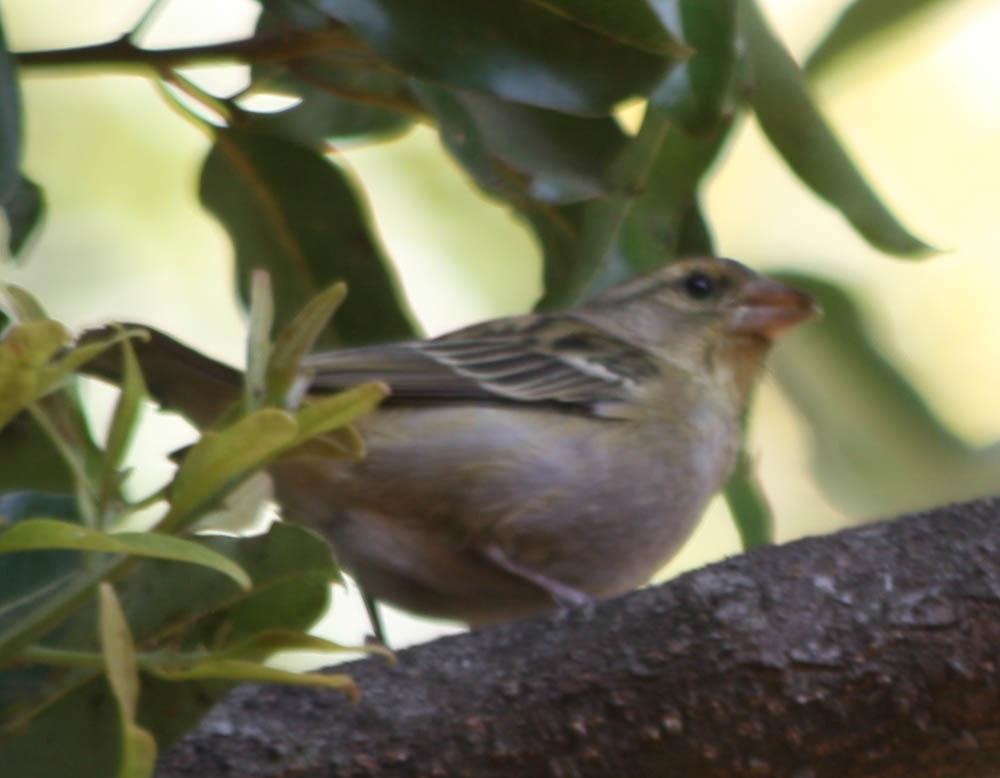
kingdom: Animalia
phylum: Chordata
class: Aves
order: Passeriformes
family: Ploceidae
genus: Foudia
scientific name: Foudia madagascariensis
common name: Red fody
